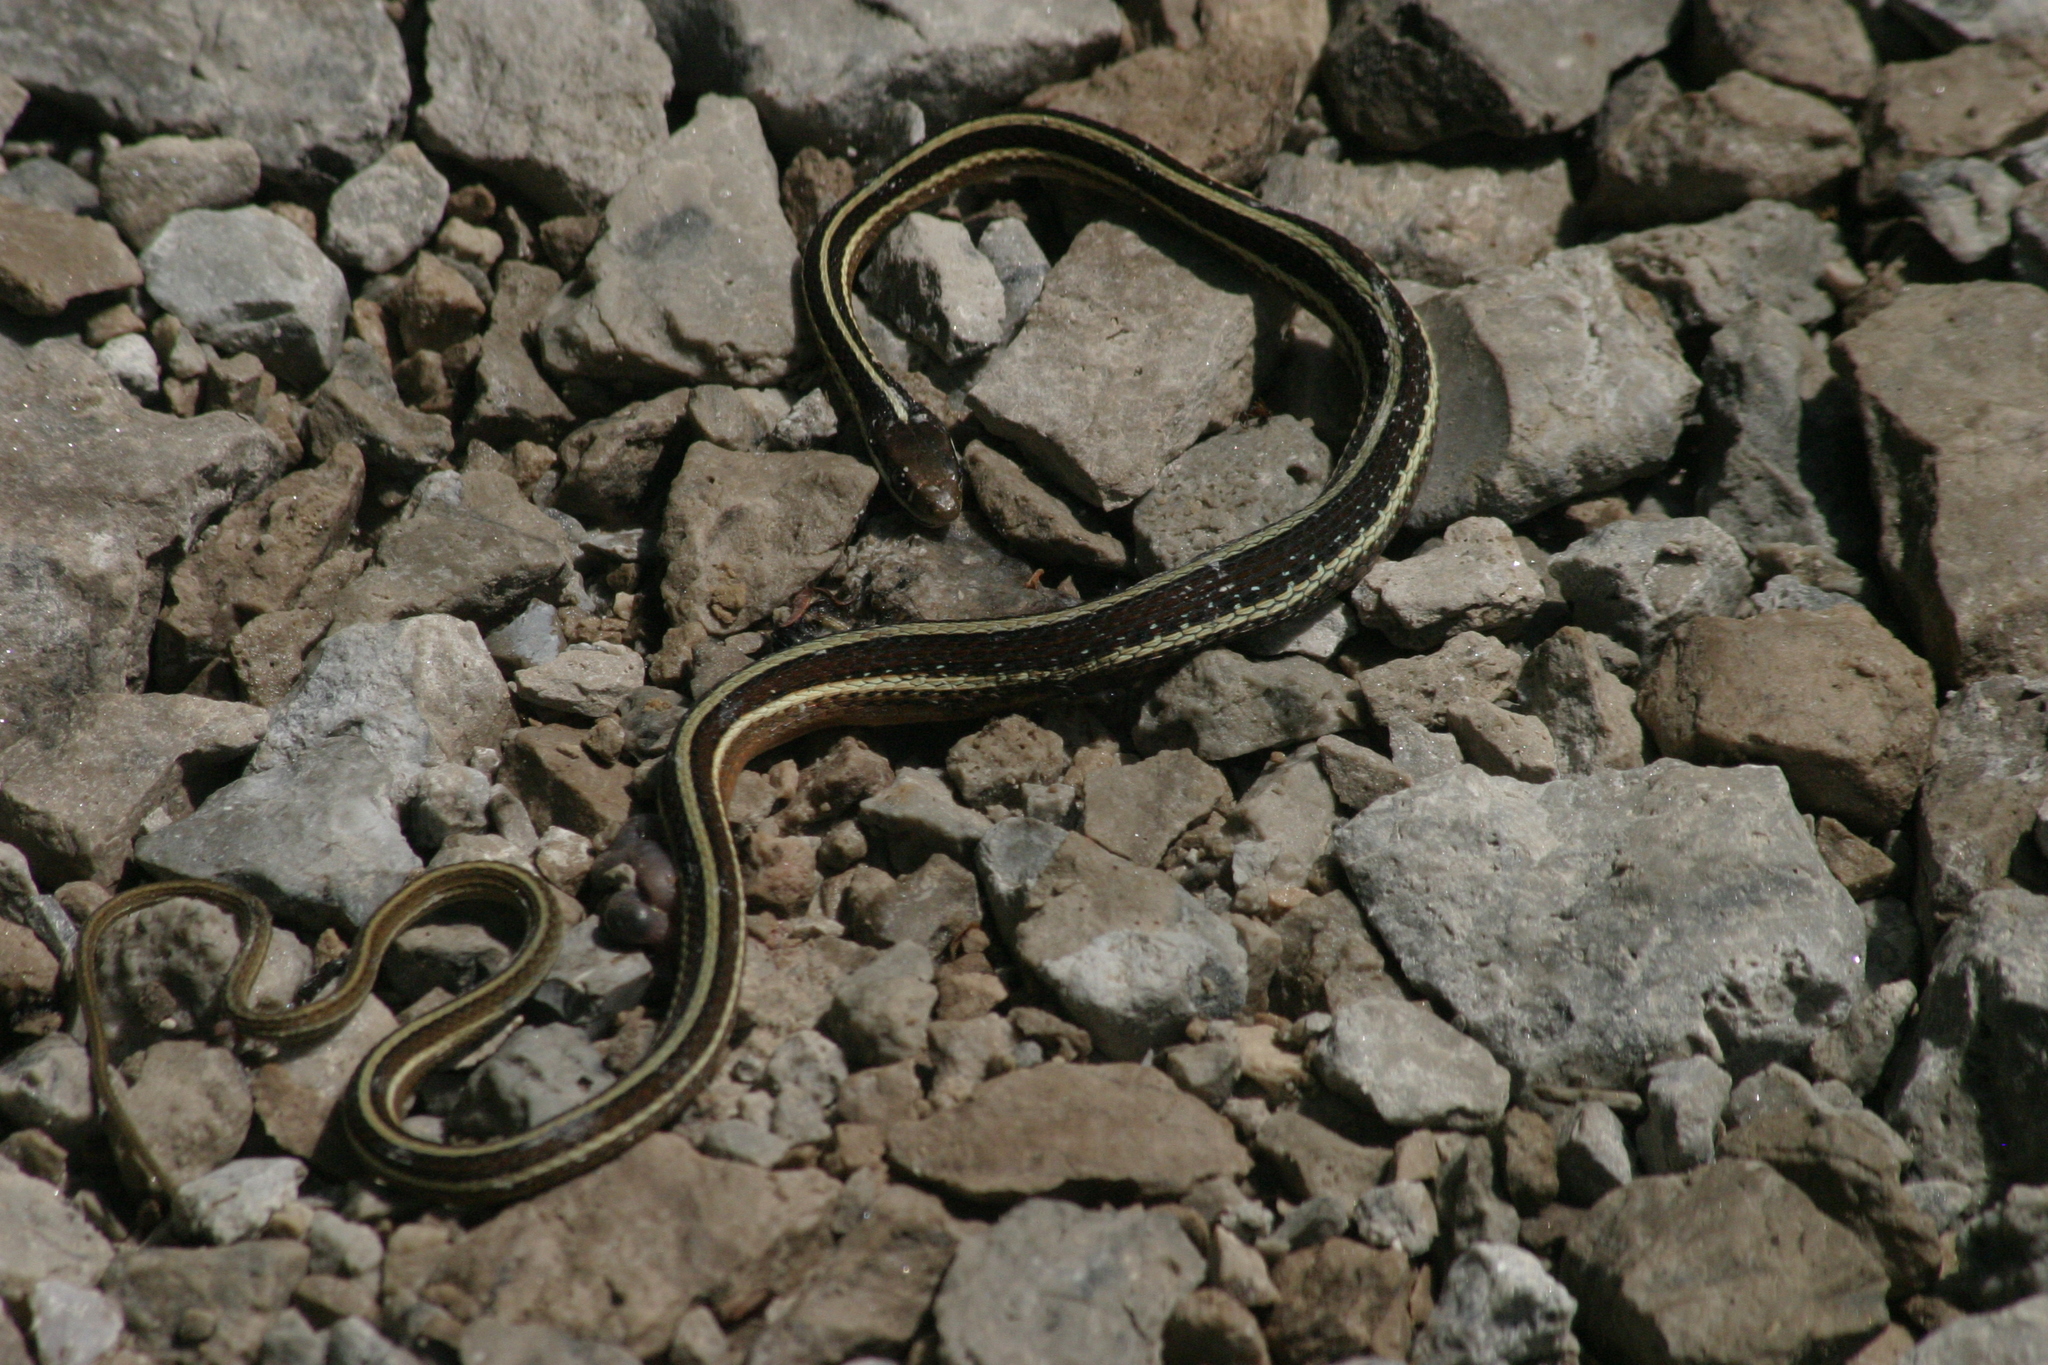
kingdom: Animalia
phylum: Chordata
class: Squamata
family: Colubridae
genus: Thamnophis
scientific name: Thamnophis saurita
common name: Eastern ribbonsnake
